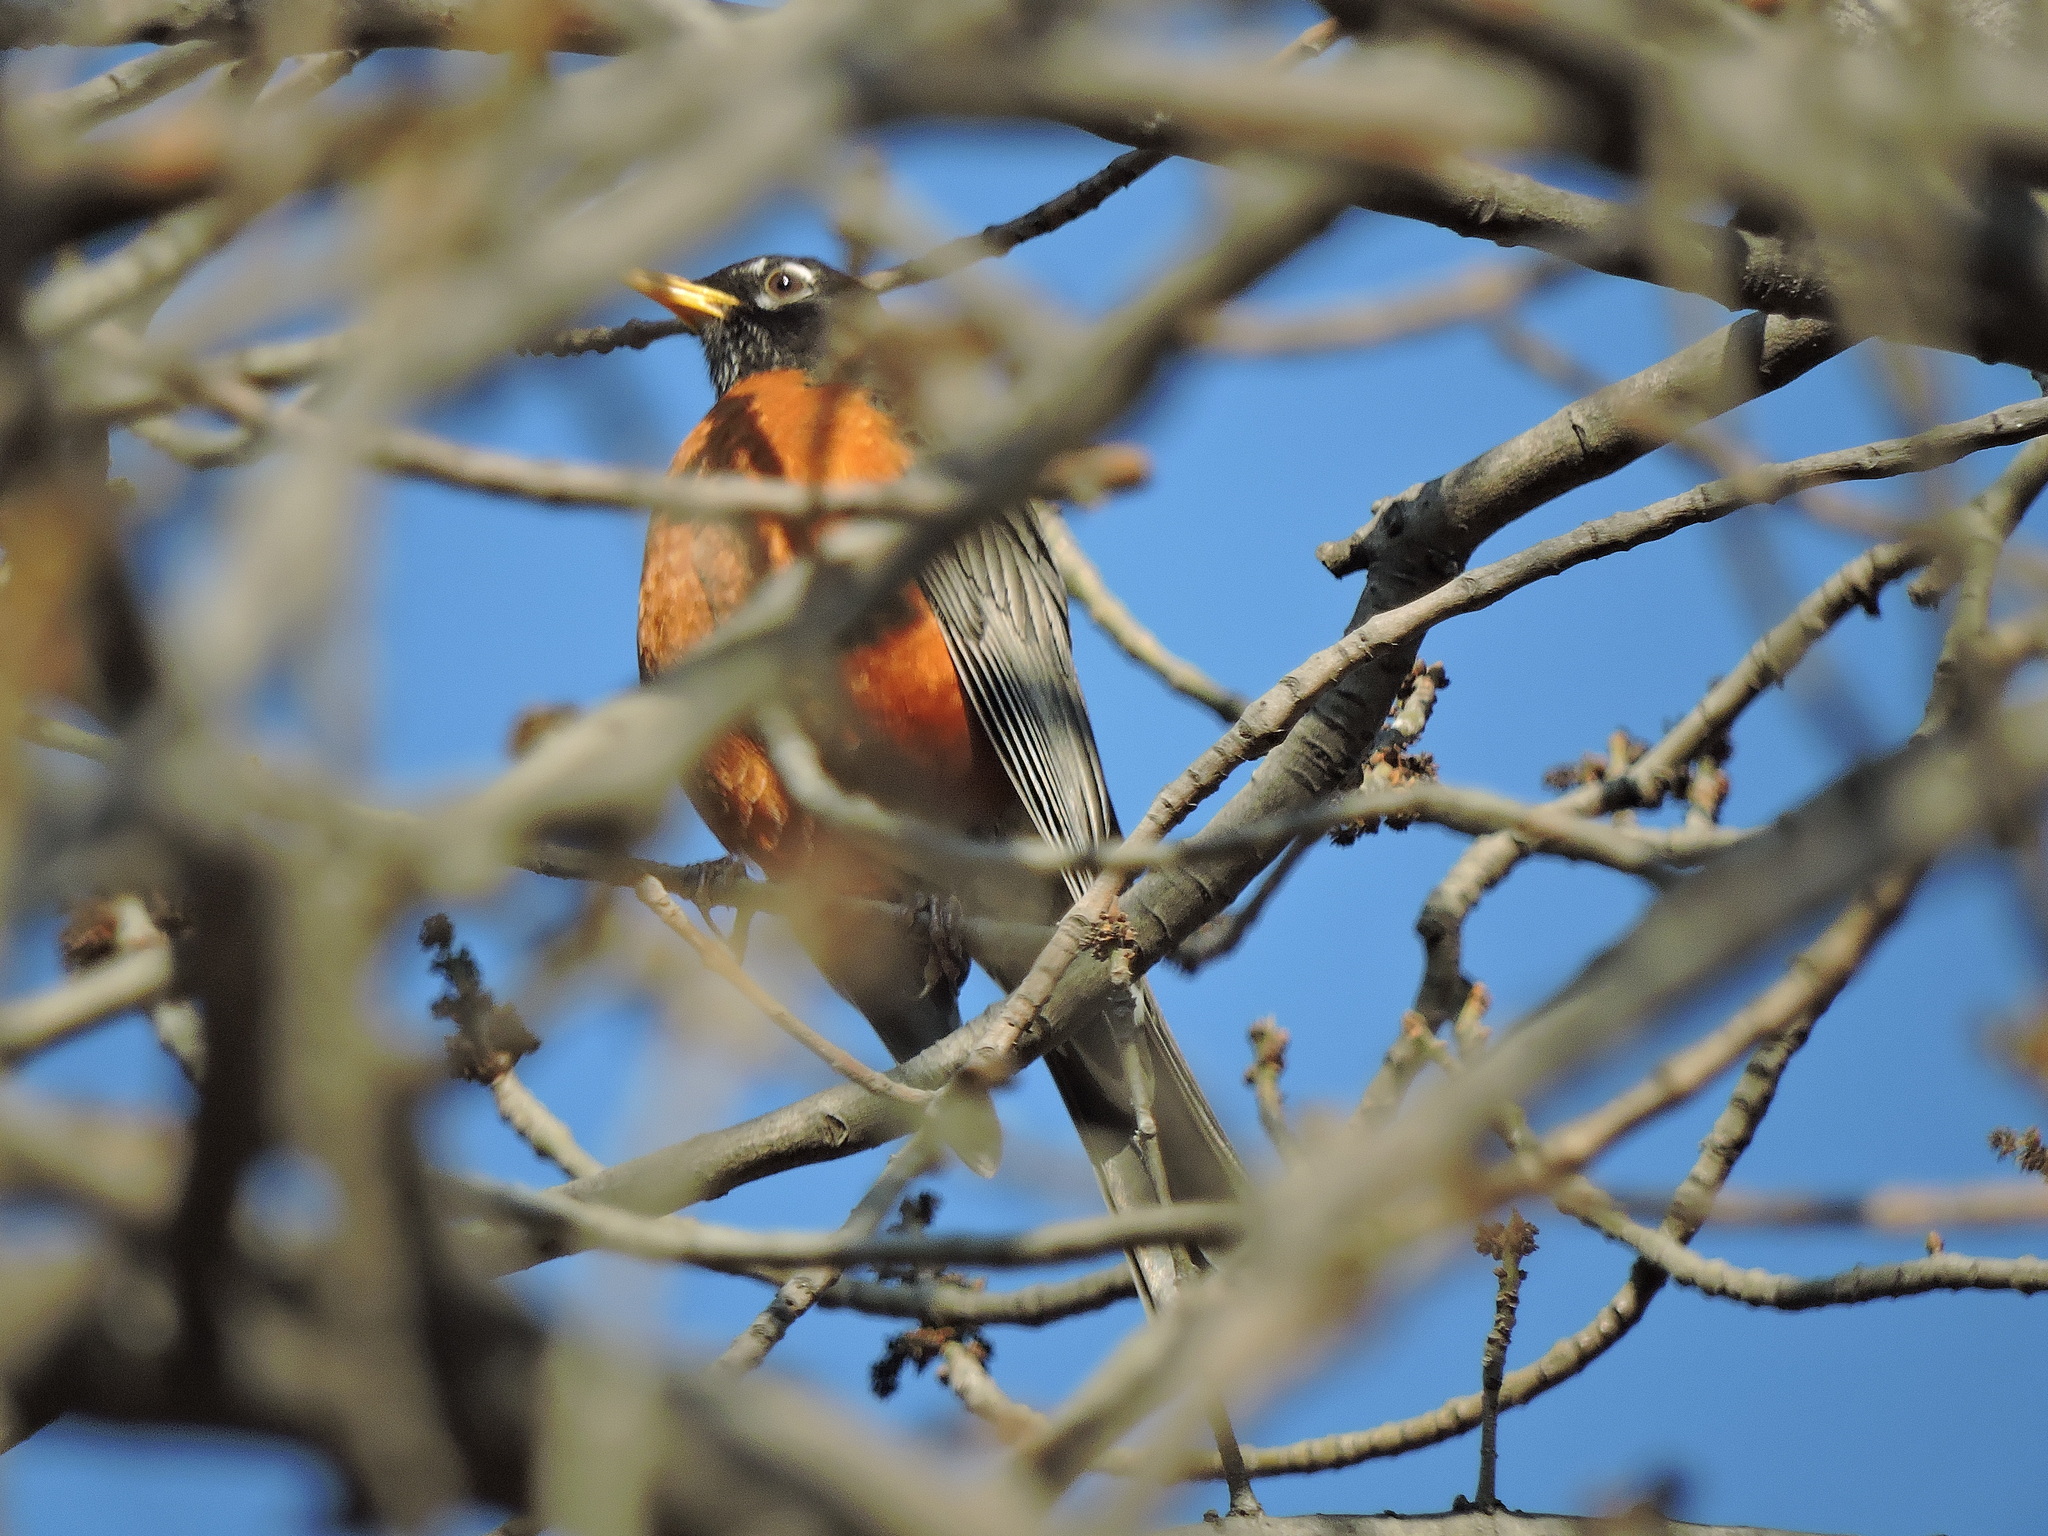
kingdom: Animalia
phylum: Chordata
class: Aves
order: Passeriformes
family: Turdidae
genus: Turdus
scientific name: Turdus migratorius
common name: American robin
